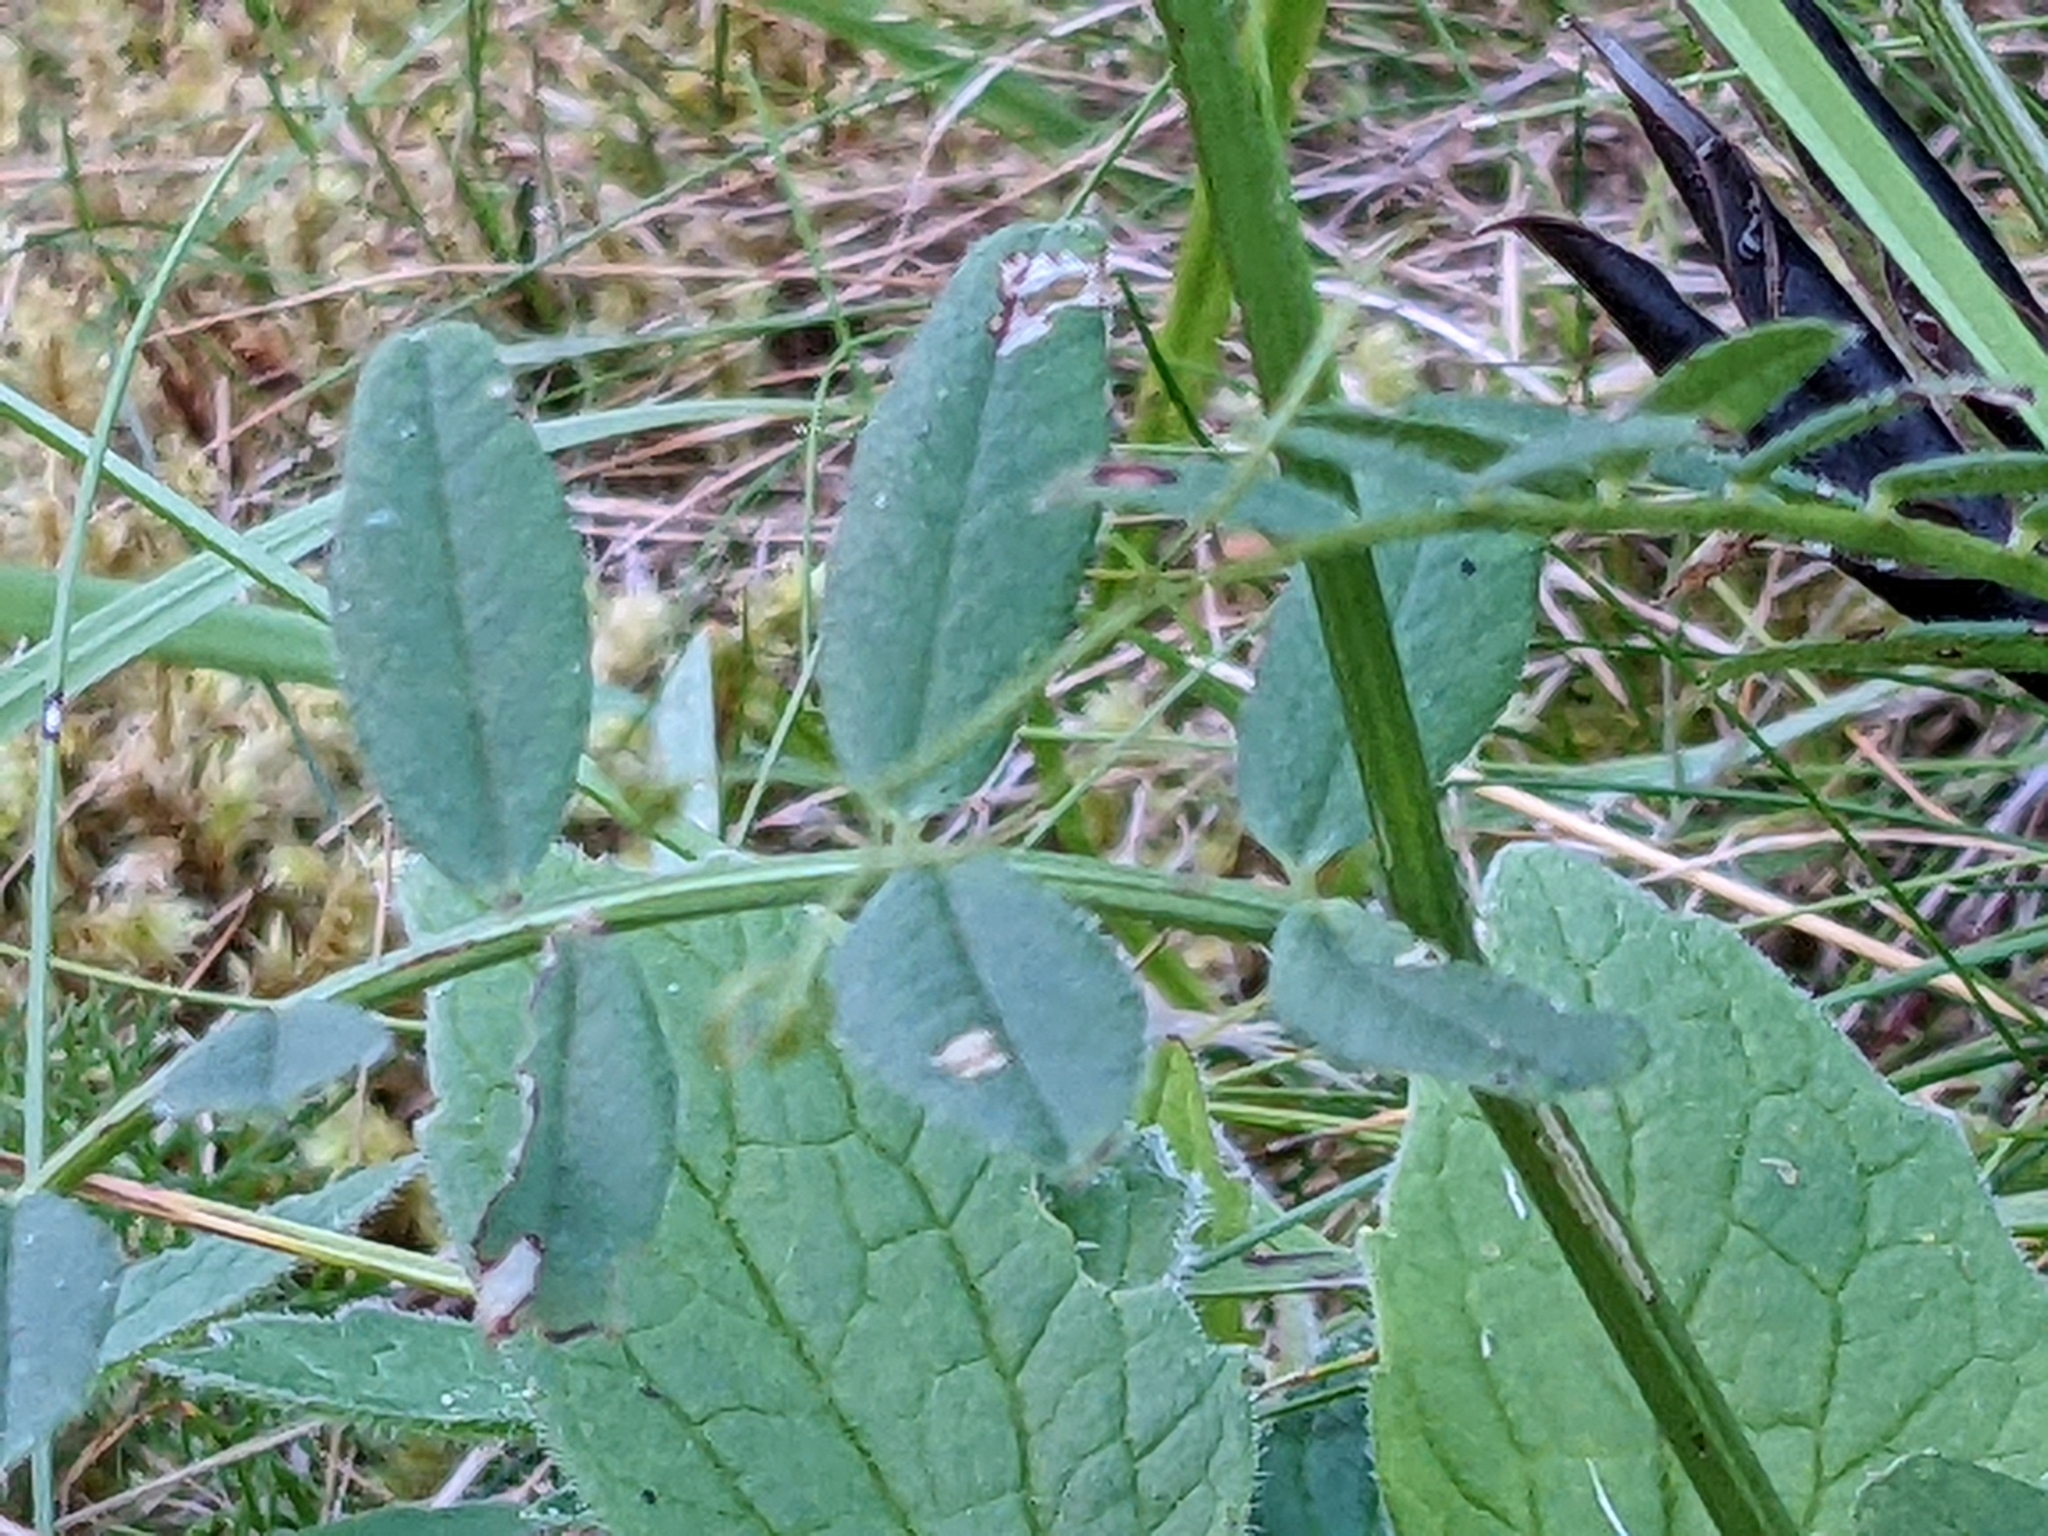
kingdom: Plantae
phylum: Tracheophyta
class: Magnoliopsida
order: Fabales
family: Fabaceae
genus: Vicia
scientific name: Vicia sepium
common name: Bush vetch
